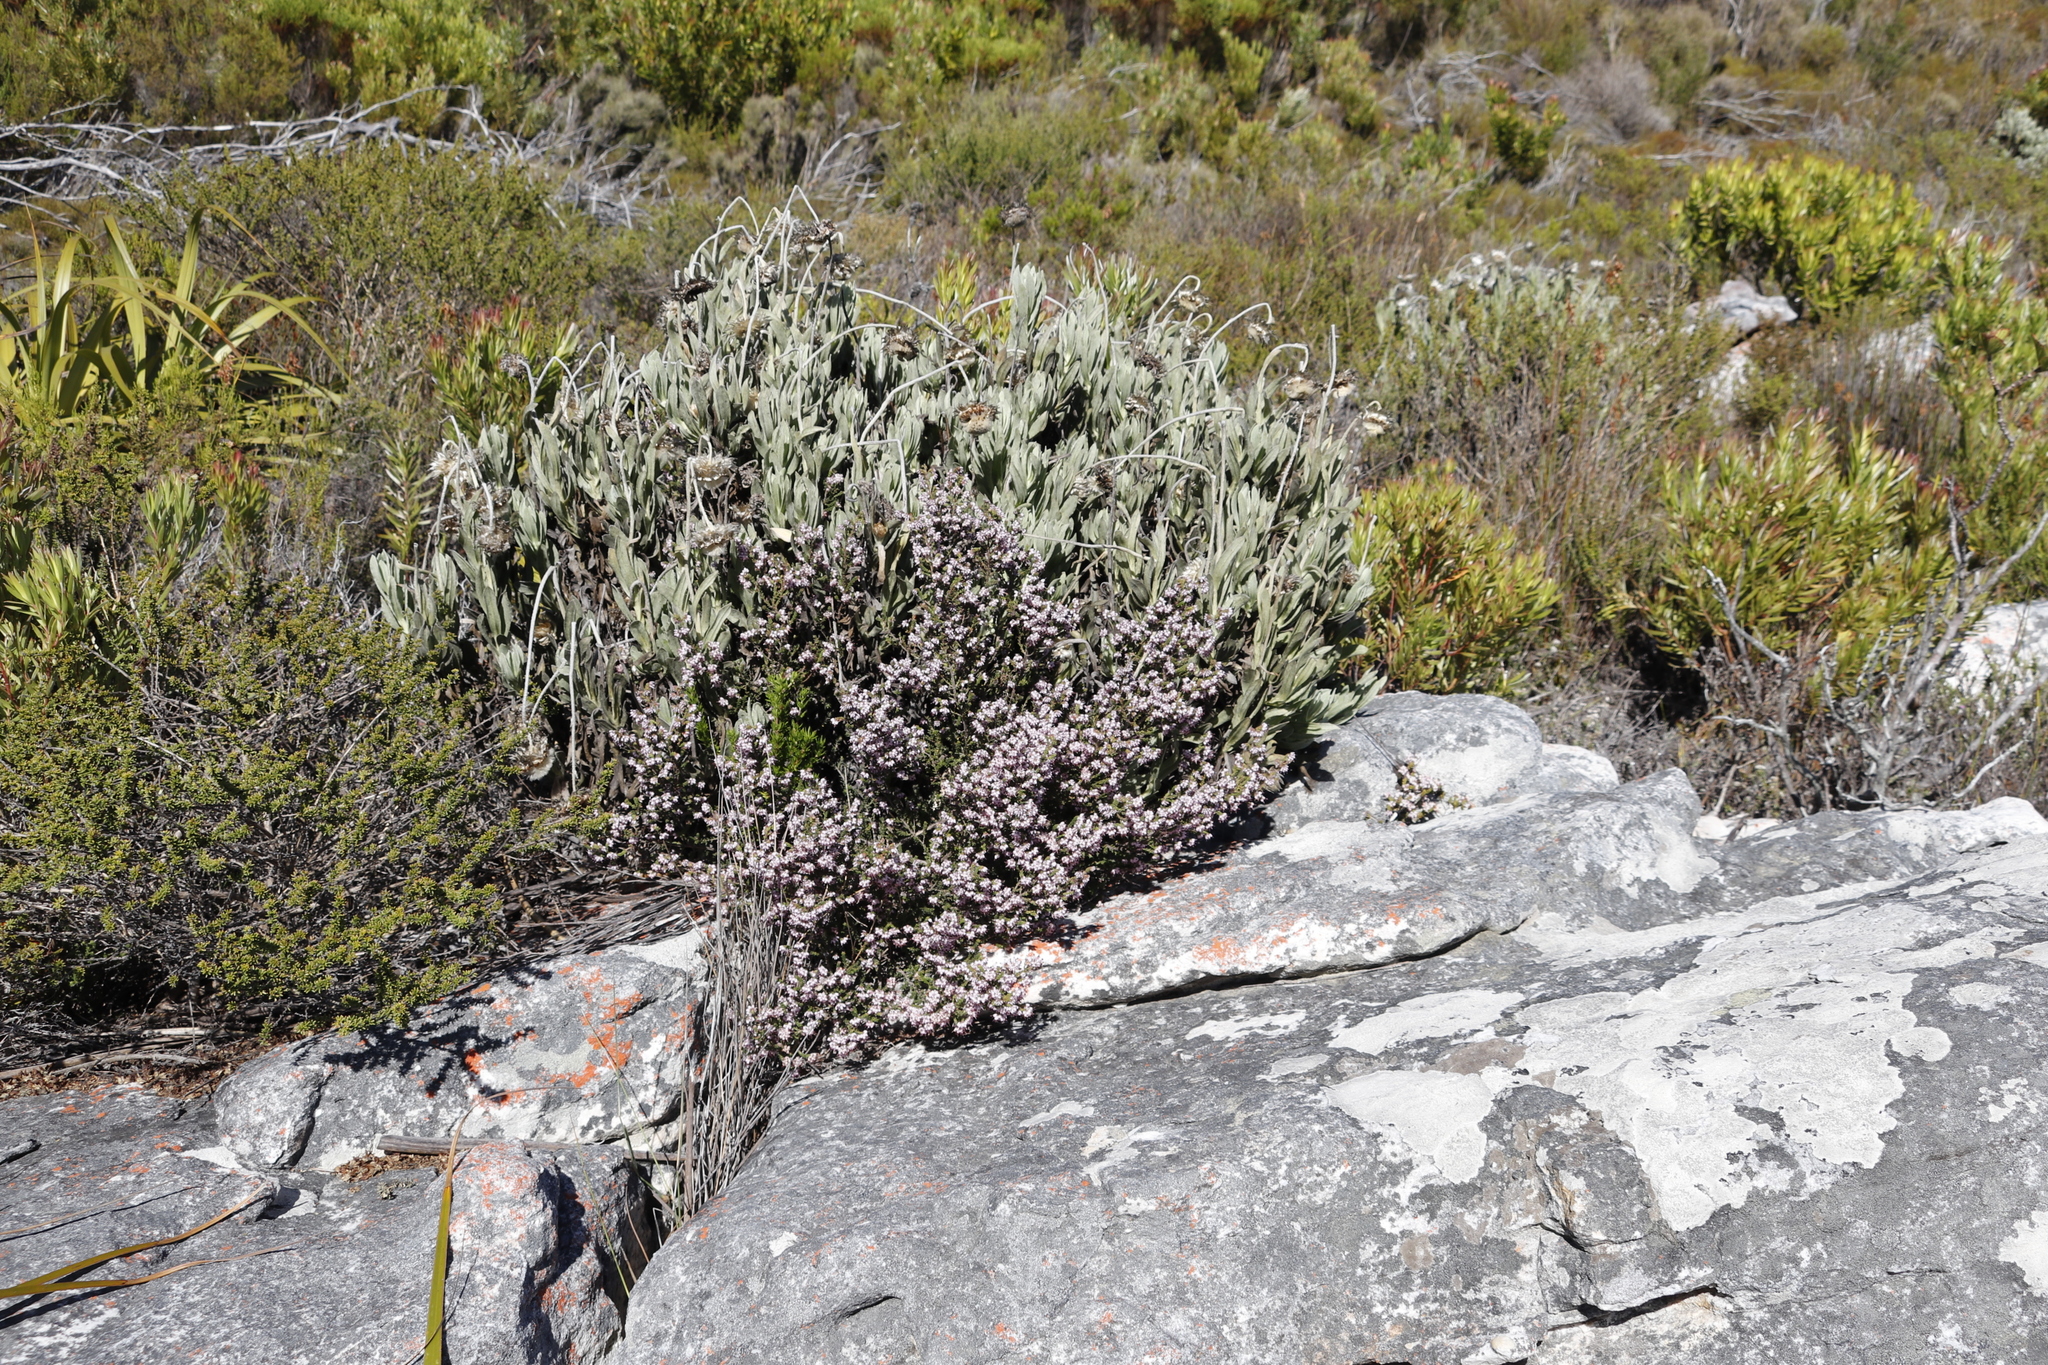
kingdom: Plantae
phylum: Tracheophyta
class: Magnoliopsida
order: Ericales
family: Ericaceae
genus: Erica
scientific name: Erica ericoides
